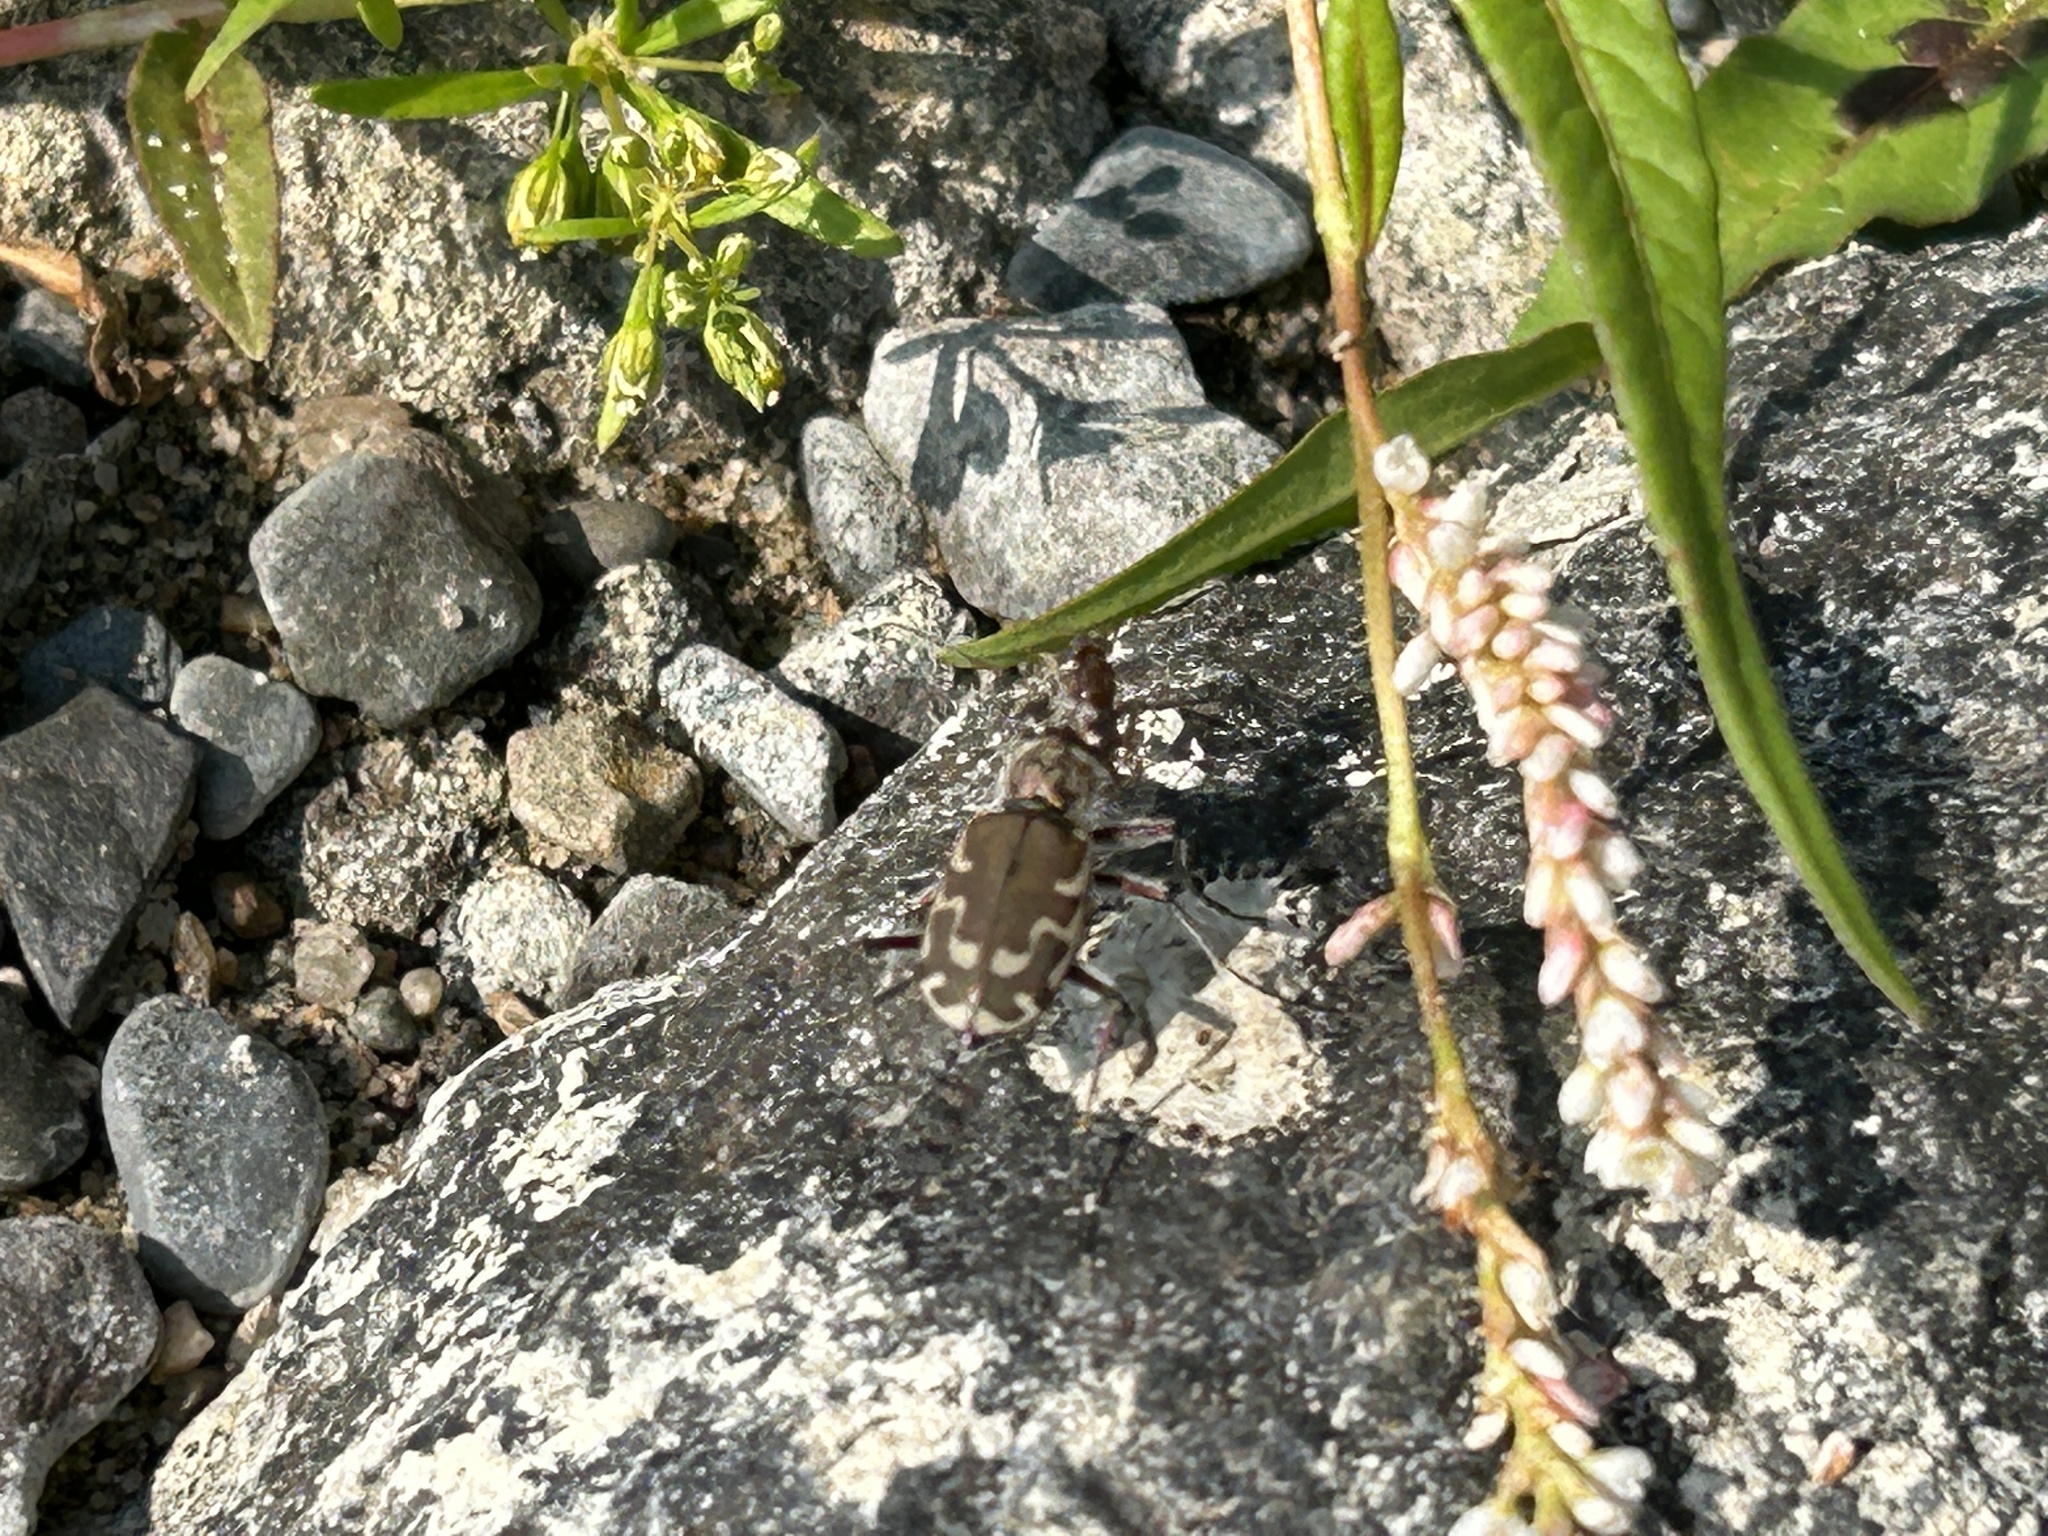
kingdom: Animalia
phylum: Arthropoda
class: Insecta
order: Coleoptera
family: Carabidae
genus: Cicindela
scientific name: Cicindela repanda
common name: Bronzed tiger beetle
